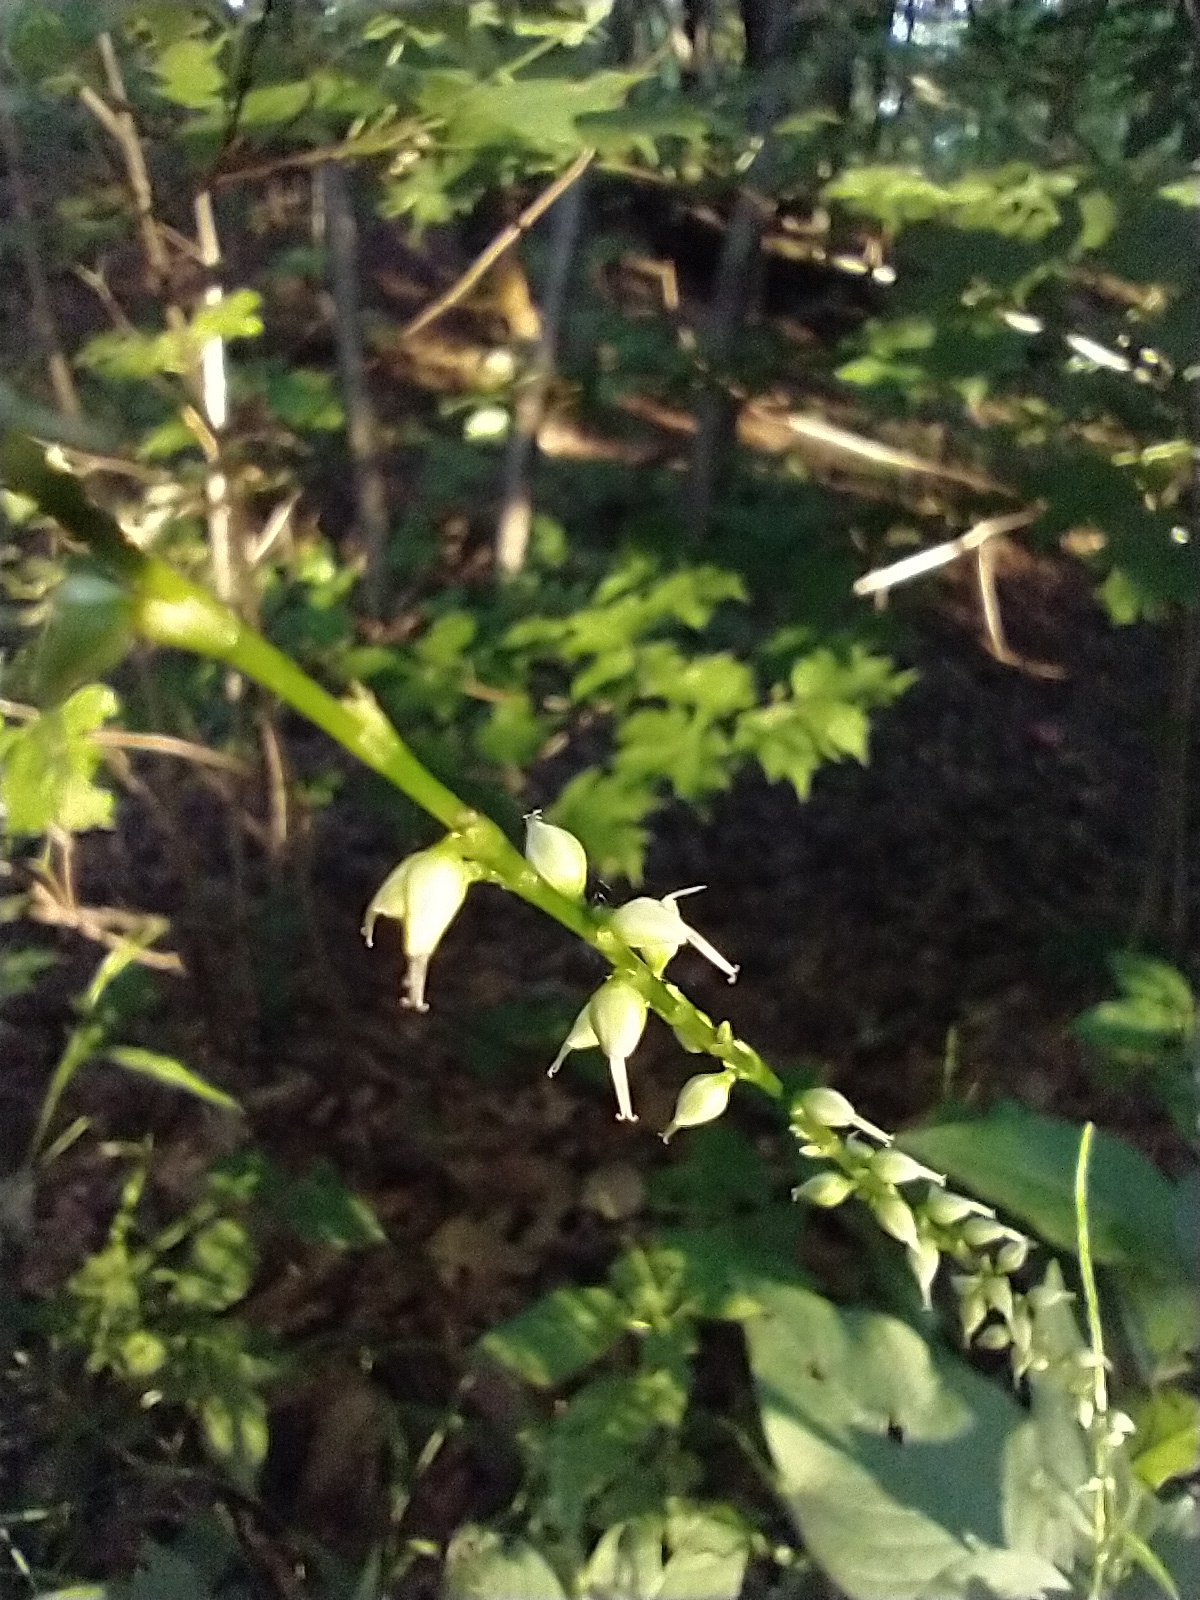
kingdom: Plantae
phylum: Tracheophyta
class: Magnoliopsida
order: Caryophyllales
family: Polygonaceae
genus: Persicaria
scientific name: Persicaria virginiana
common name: Jumpseed
